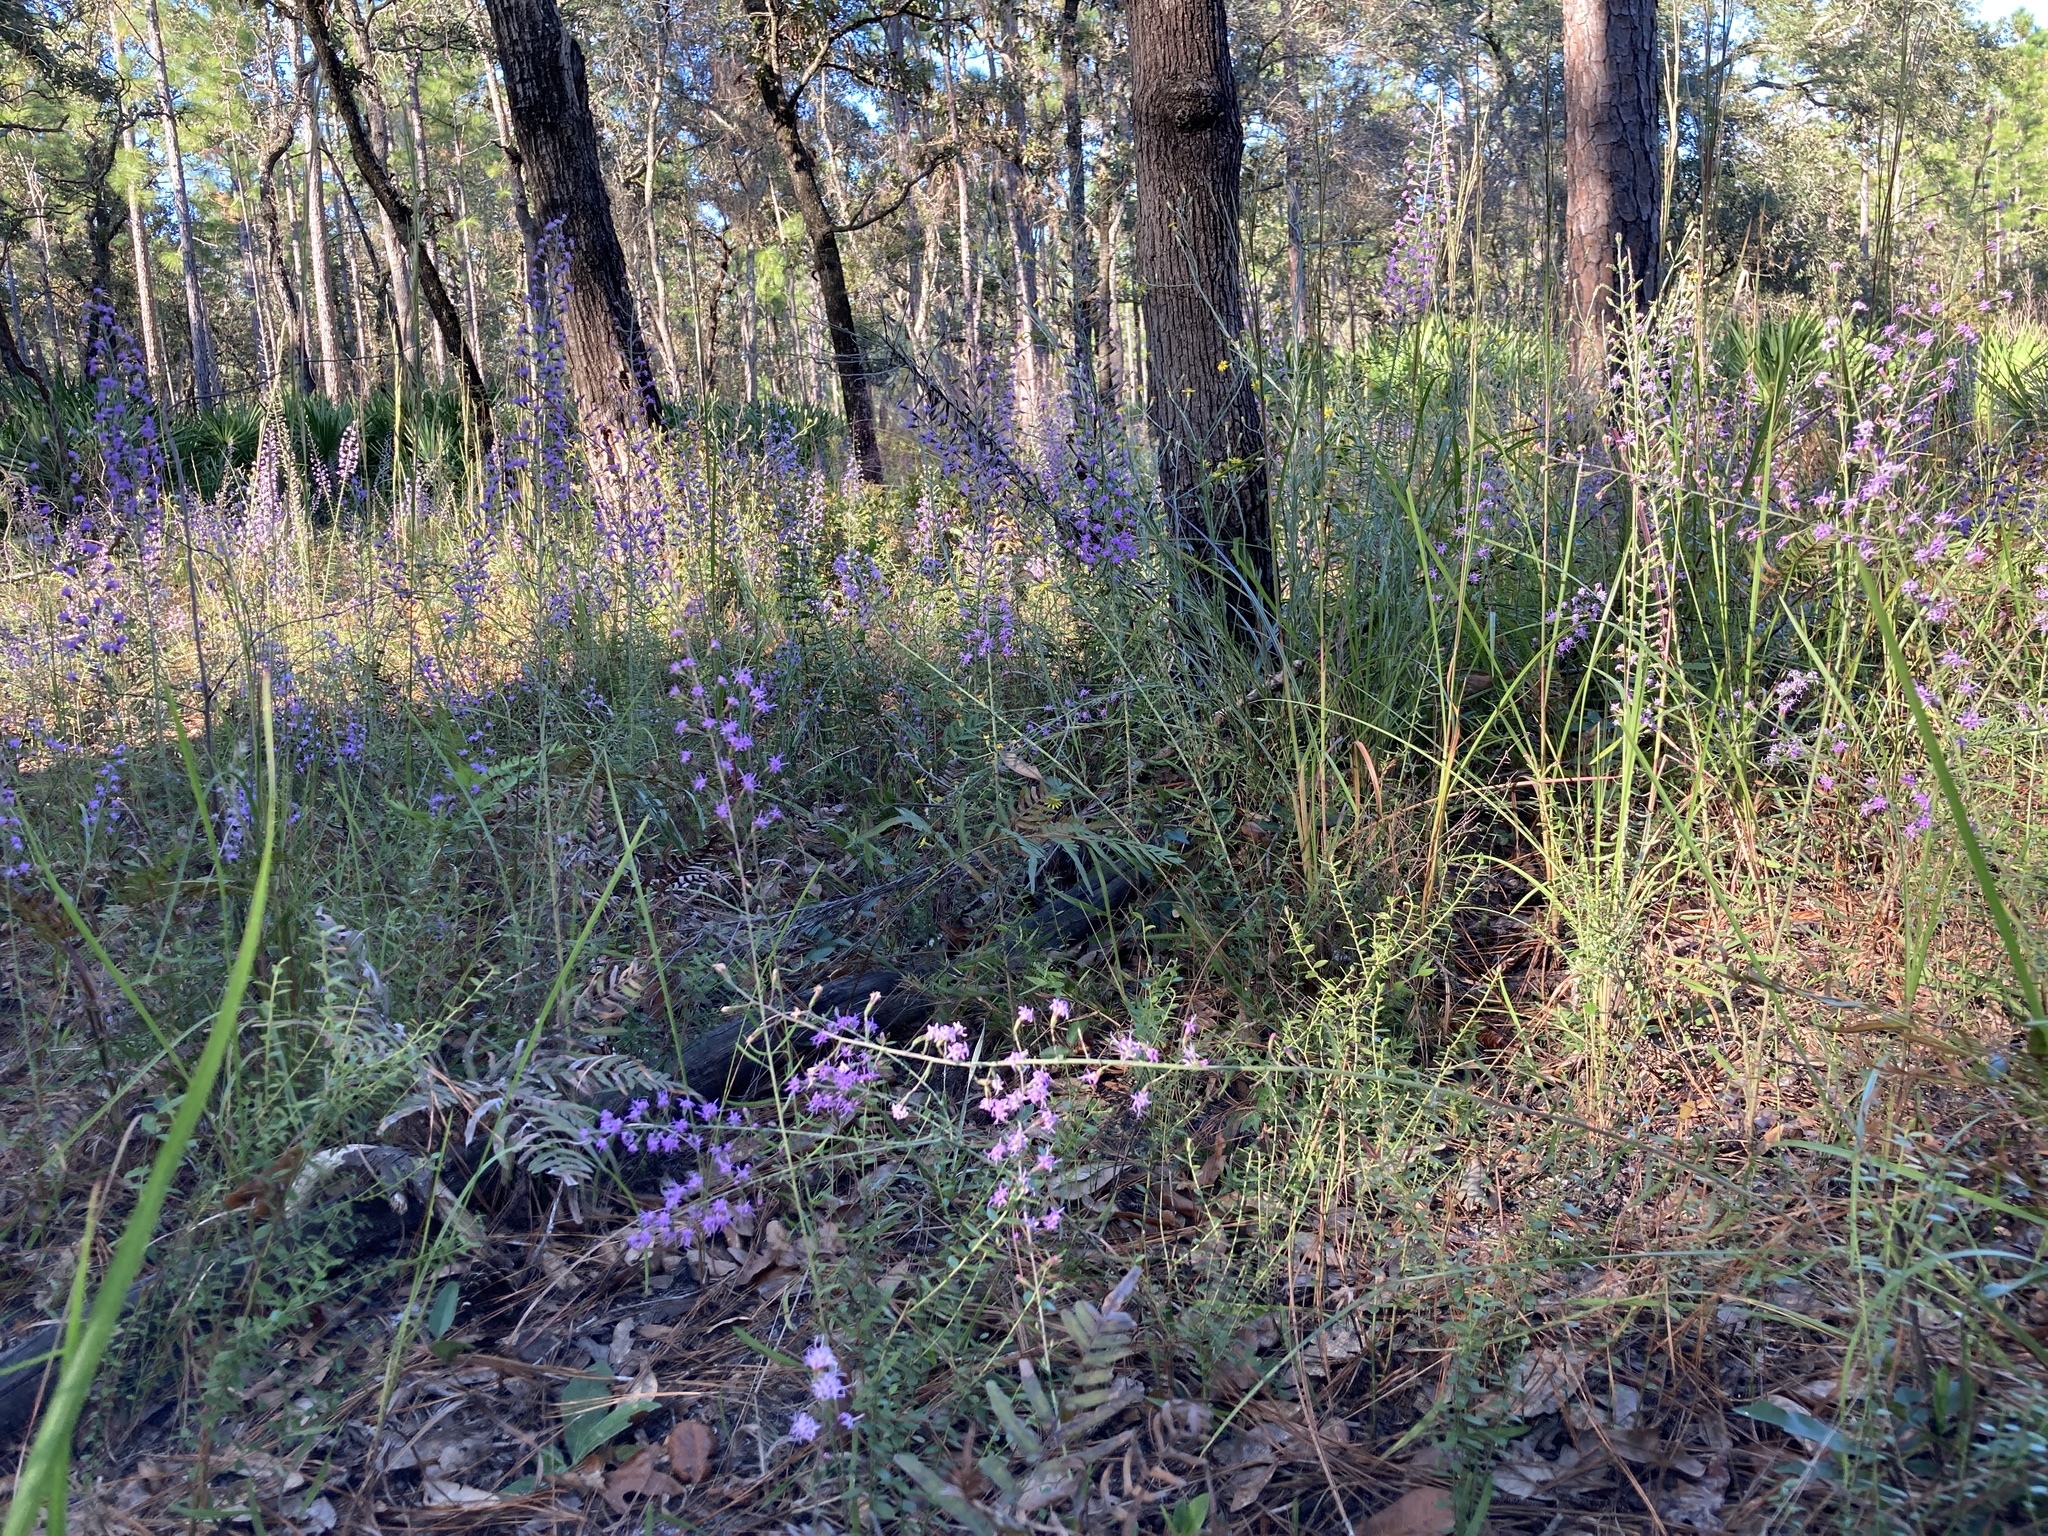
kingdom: Plantae
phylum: Tracheophyta
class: Magnoliopsida
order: Asterales
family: Asteraceae
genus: Liatris
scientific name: Liatris gracilis
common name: Slender gayfeather
